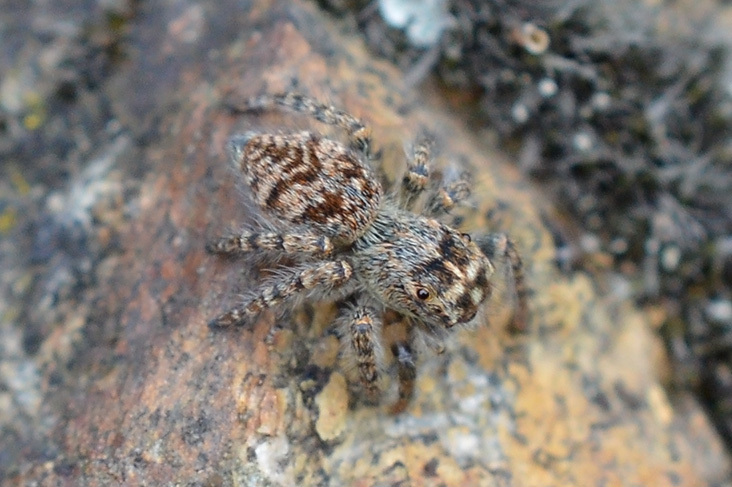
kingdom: Animalia
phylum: Arthropoda
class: Arachnida
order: Araneae
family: Salticidae
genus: Philaeus
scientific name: Philaeus chrysops
